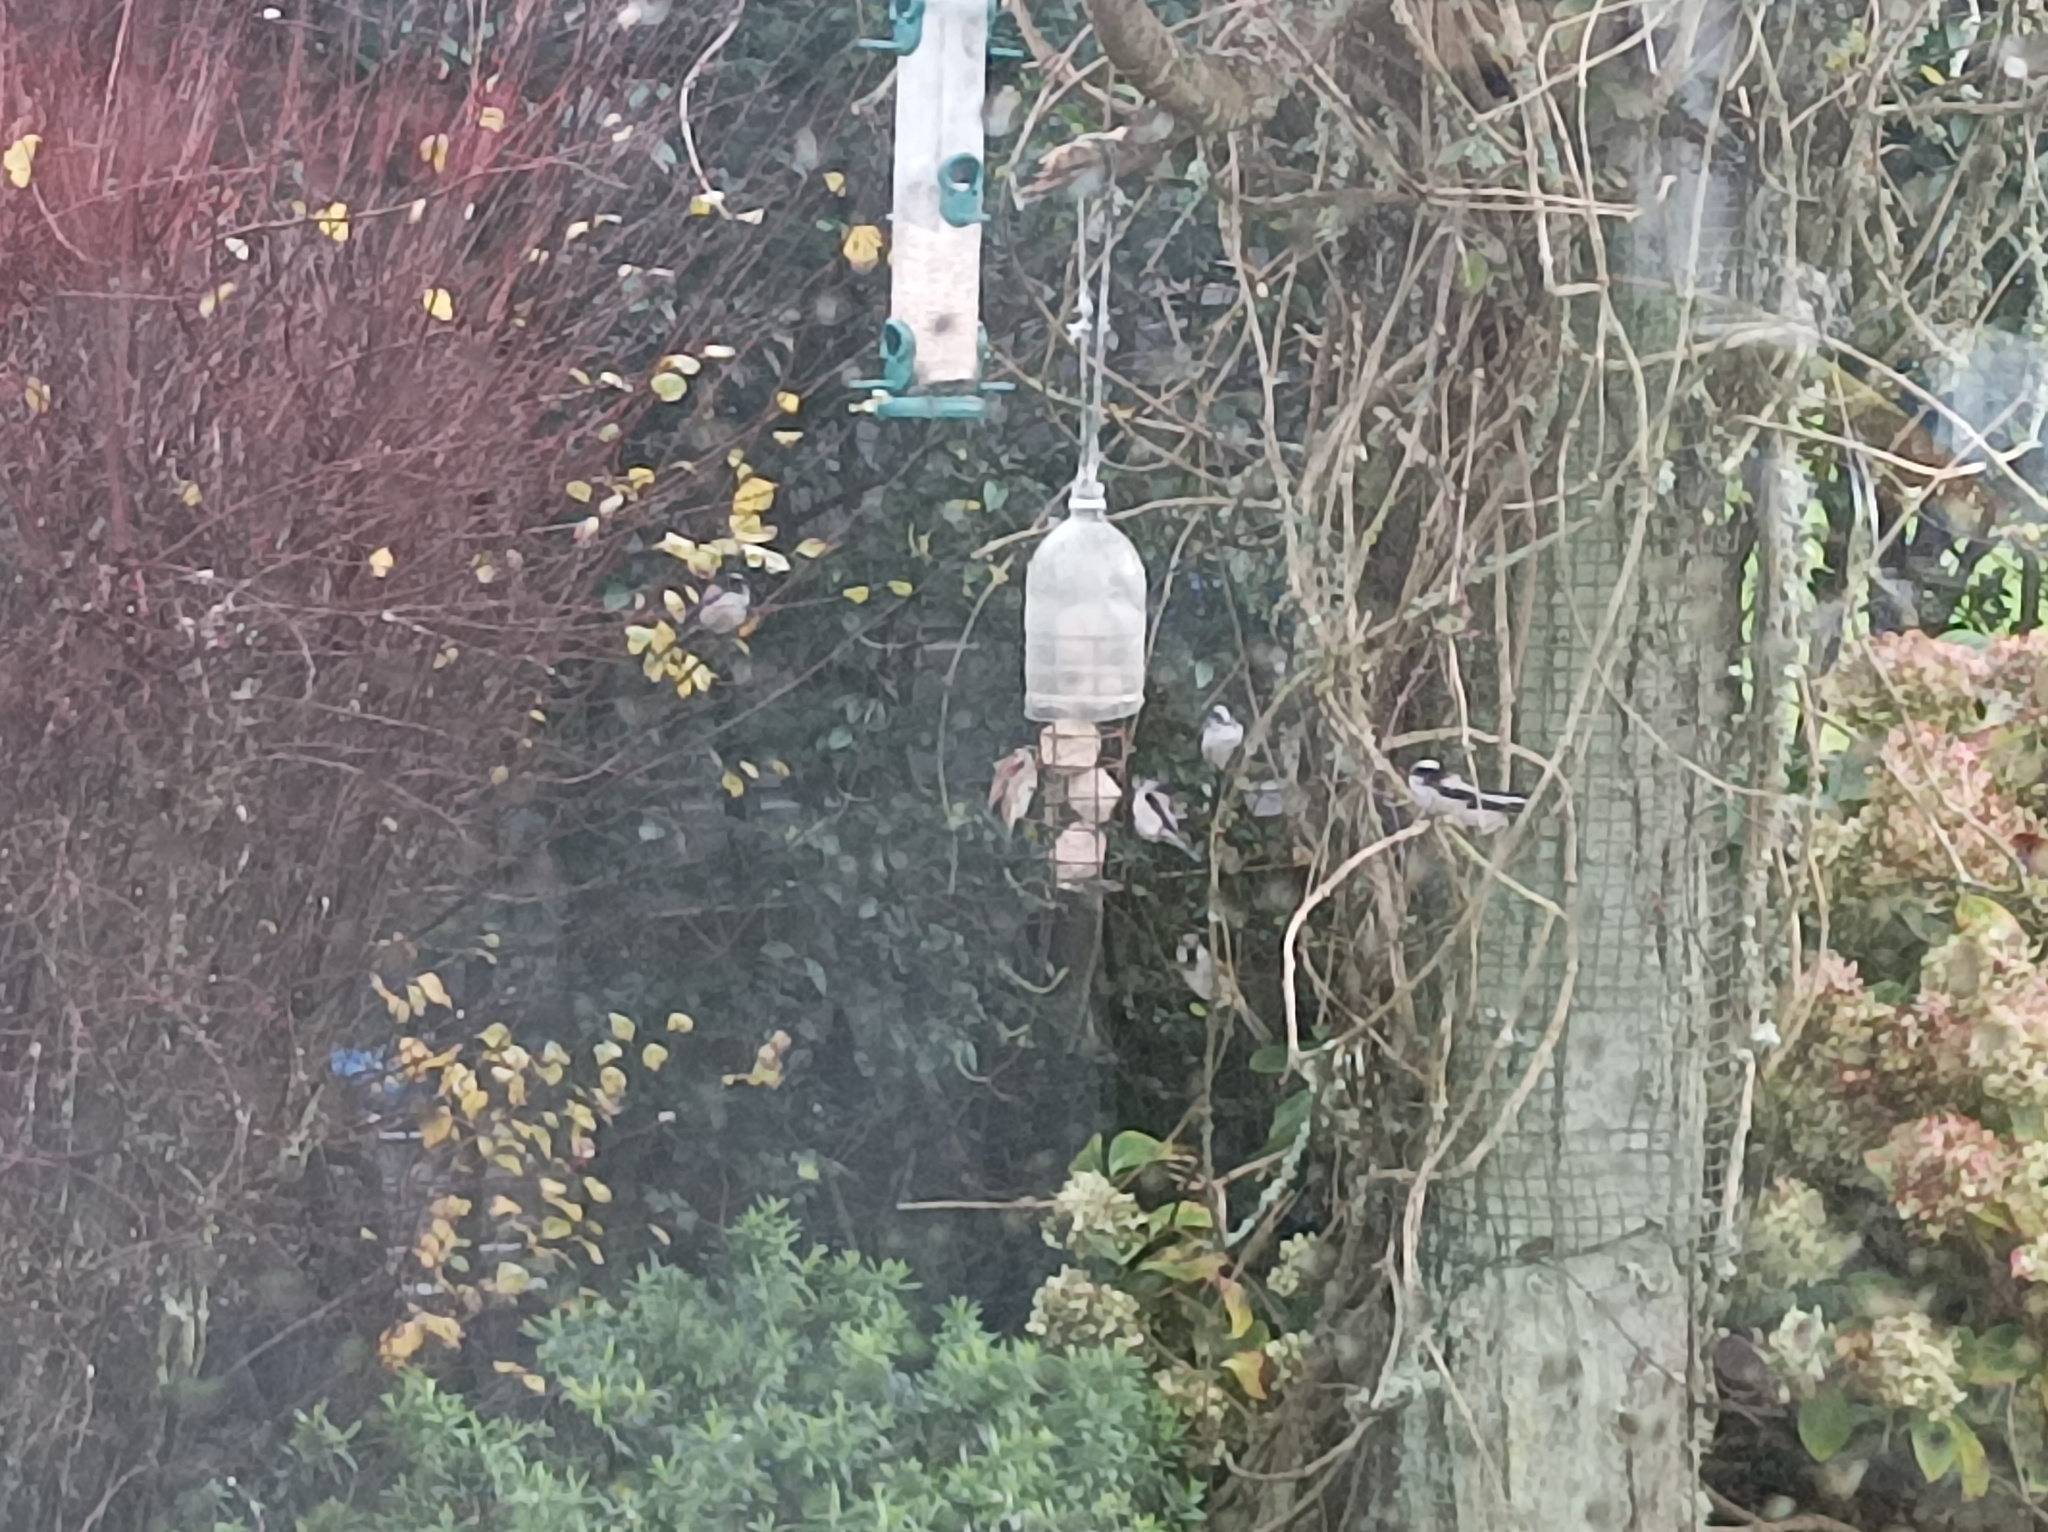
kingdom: Animalia
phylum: Chordata
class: Aves
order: Passeriformes
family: Aegithalidae
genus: Aegithalos
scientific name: Aegithalos caudatus
